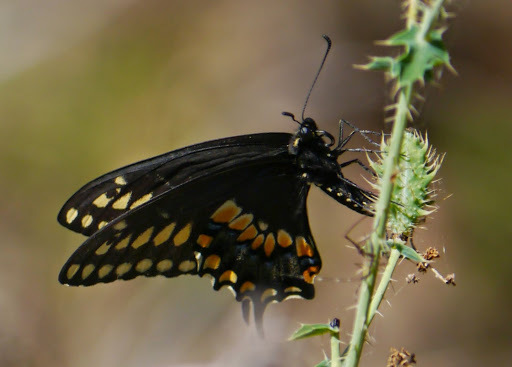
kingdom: Animalia
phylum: Arthropoda
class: Insecta
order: Lepidoptera
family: Papilionidae
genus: Papilio
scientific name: Papilio polyxenes
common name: Black swallowtail
